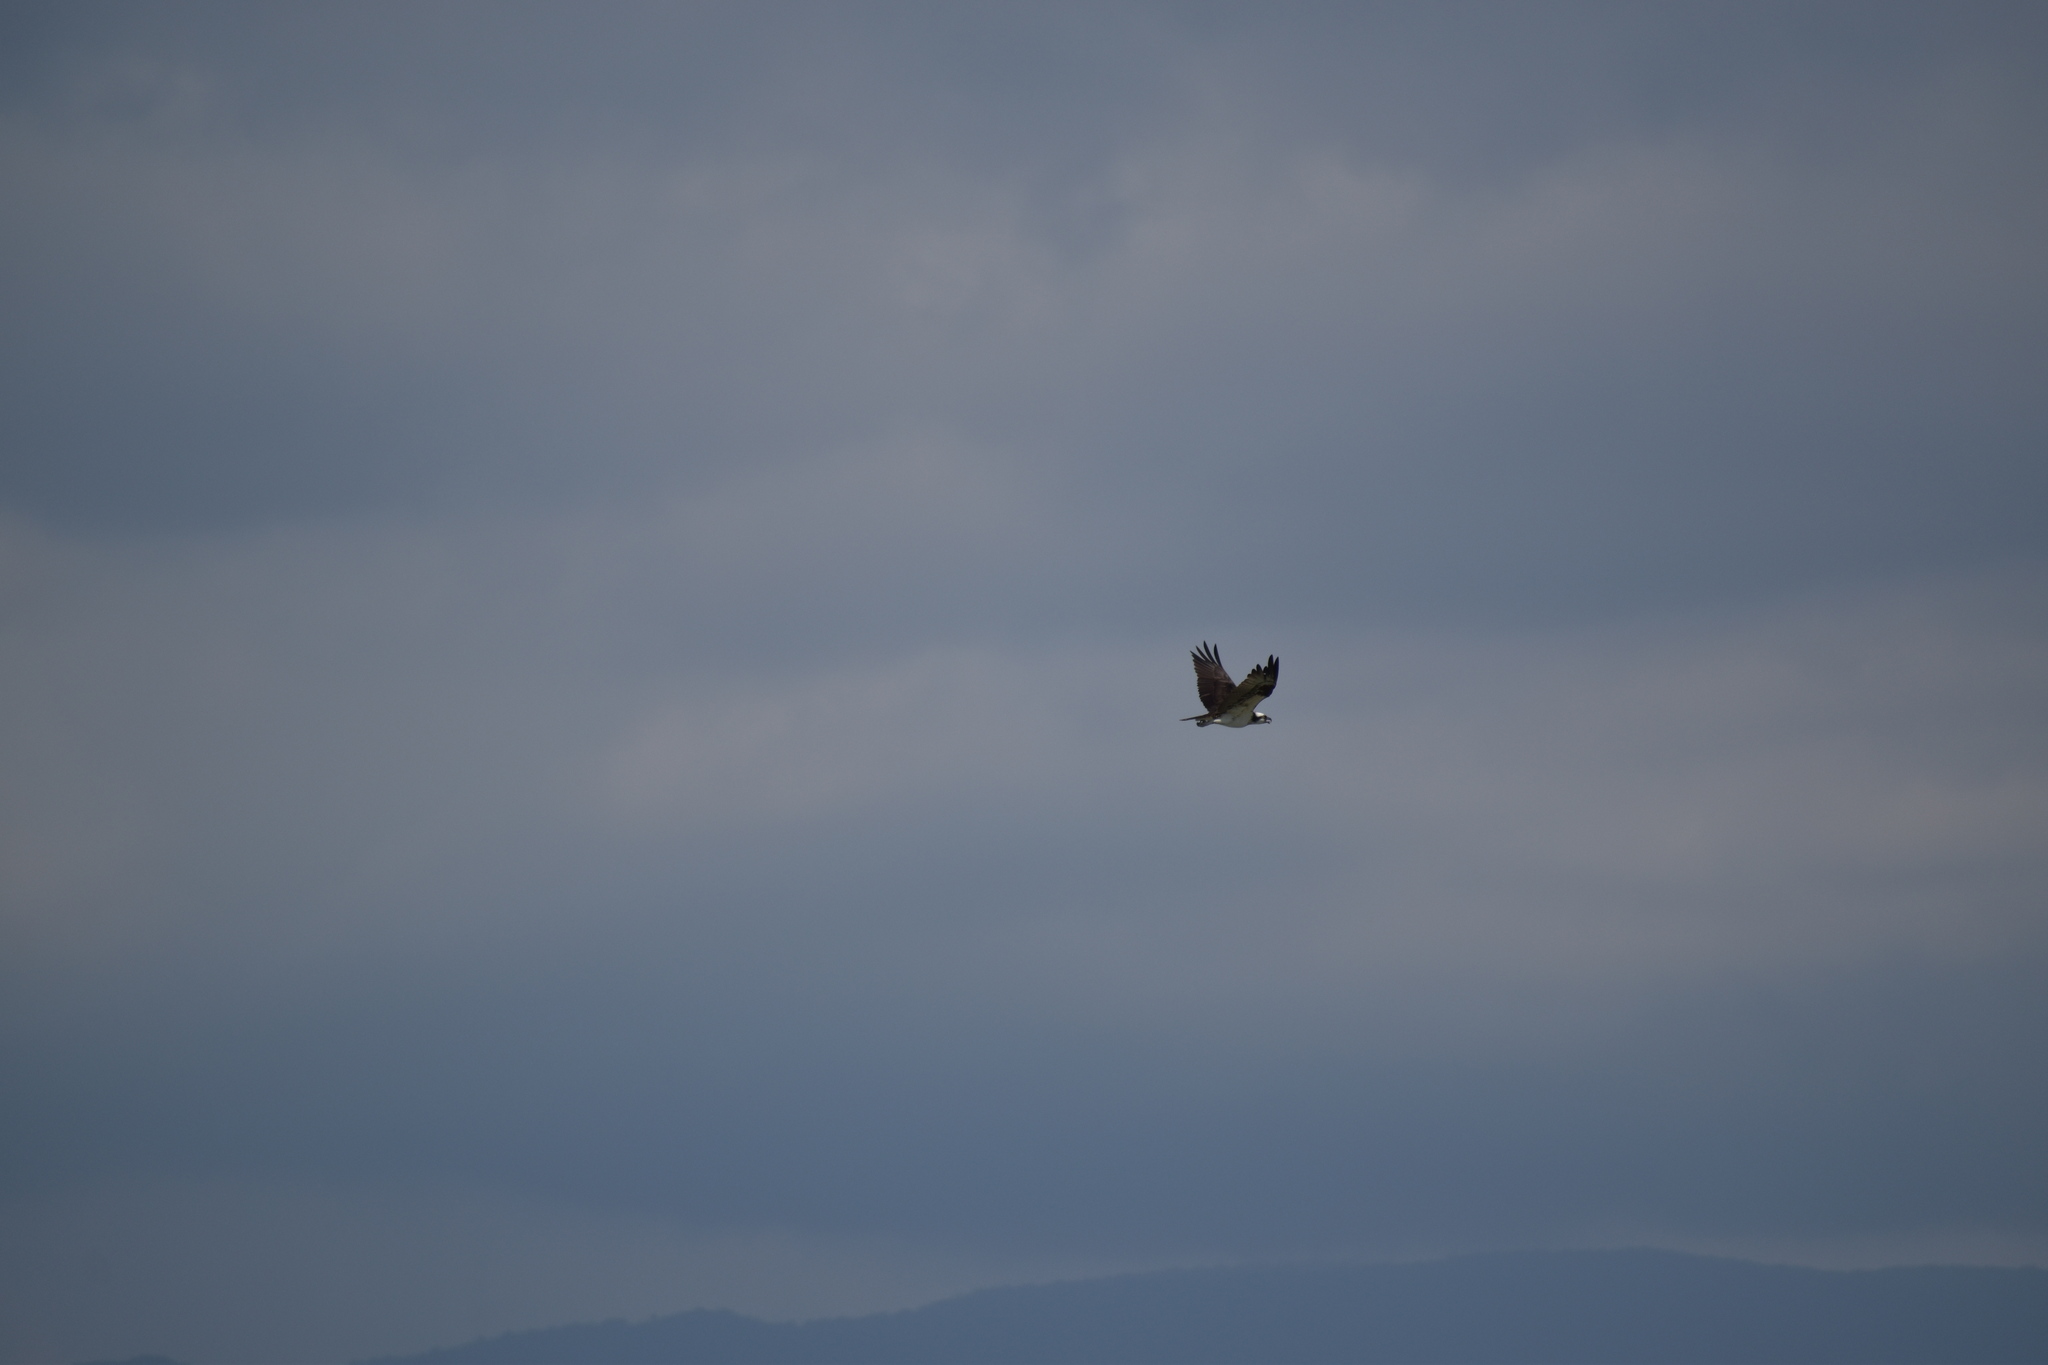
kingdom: Animalia
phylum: Chordata
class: Aves
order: Accipitriformes
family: Pandionidae
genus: Pandion
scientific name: Pandion haliaetus
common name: Osprey
